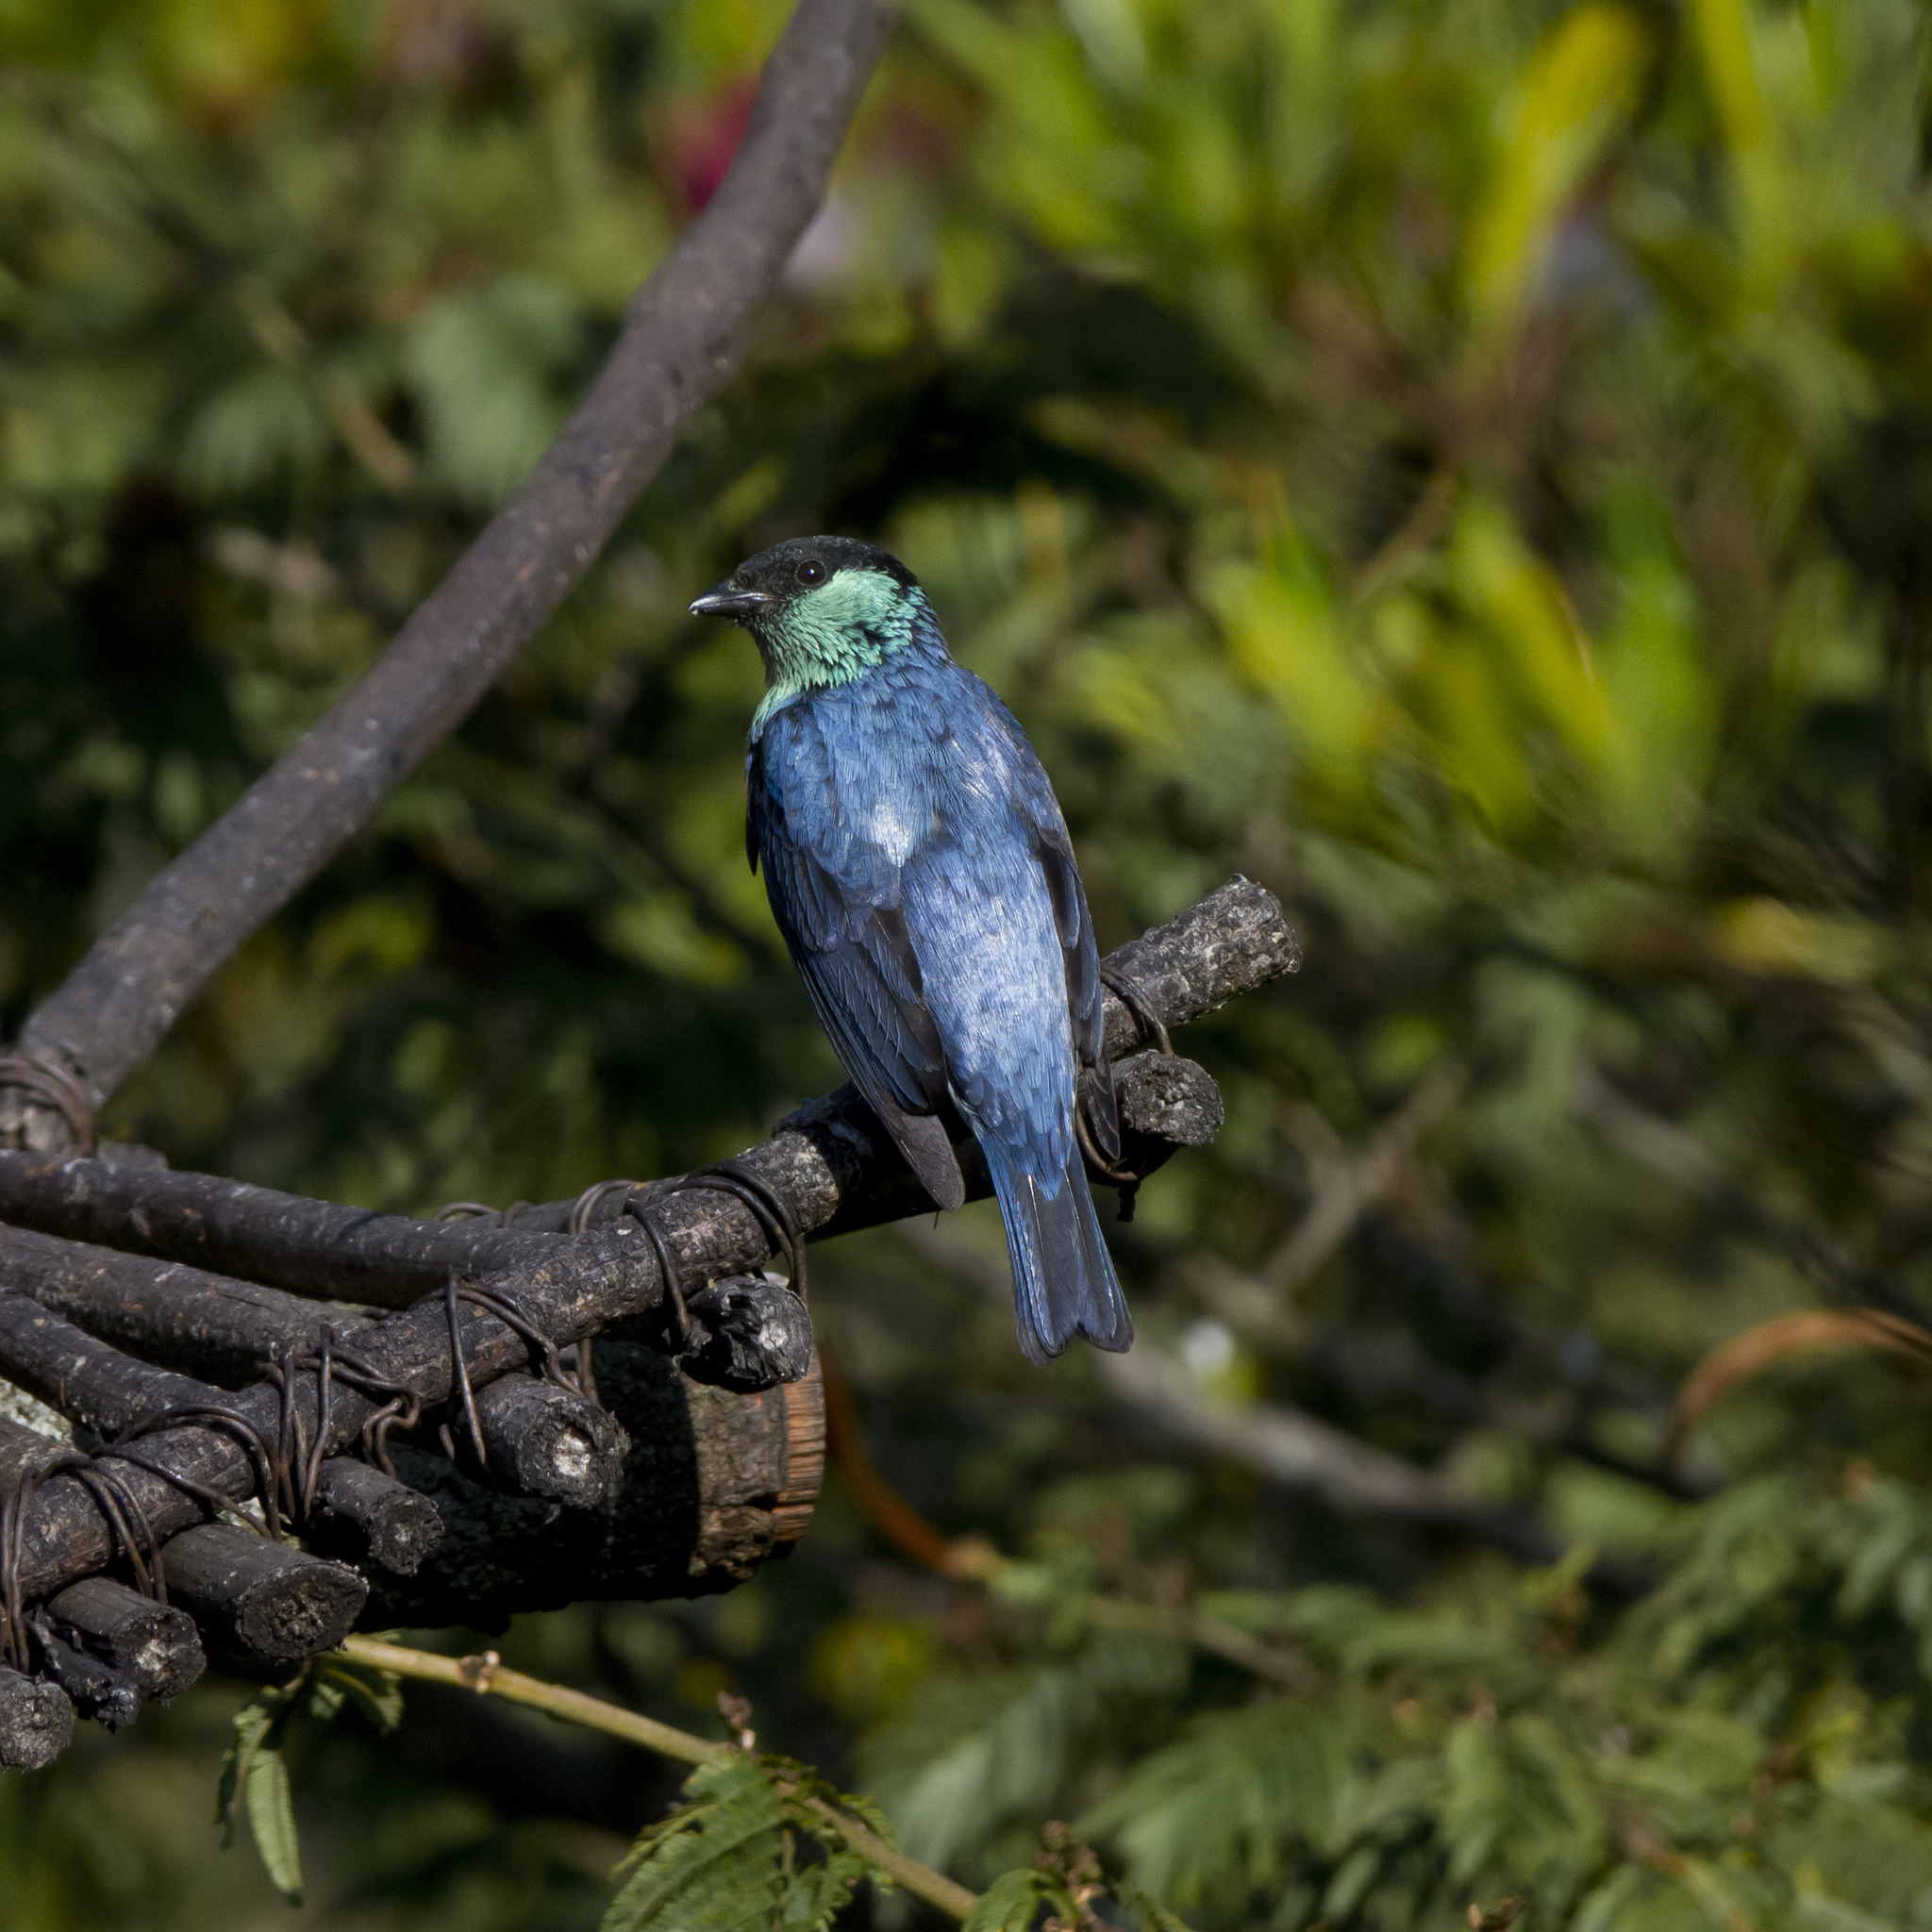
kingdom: Animalia
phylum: Chordata
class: Aves
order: Passeriformes
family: Thraupidae
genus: Stilpnia
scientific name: Stilpnia heinei
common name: Black-capped tanager
